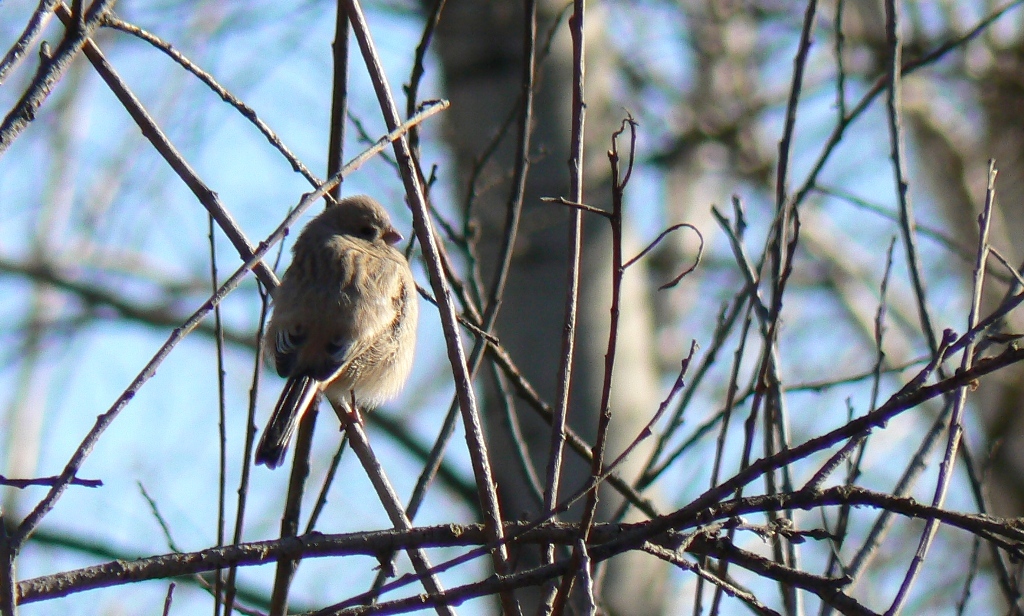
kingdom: Animalia
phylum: Chordata
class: Aves
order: Passeriformes
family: Fringillidae
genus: Carpodacus
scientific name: Carpodacus sibiricus
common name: Long-tailed rosefinch
